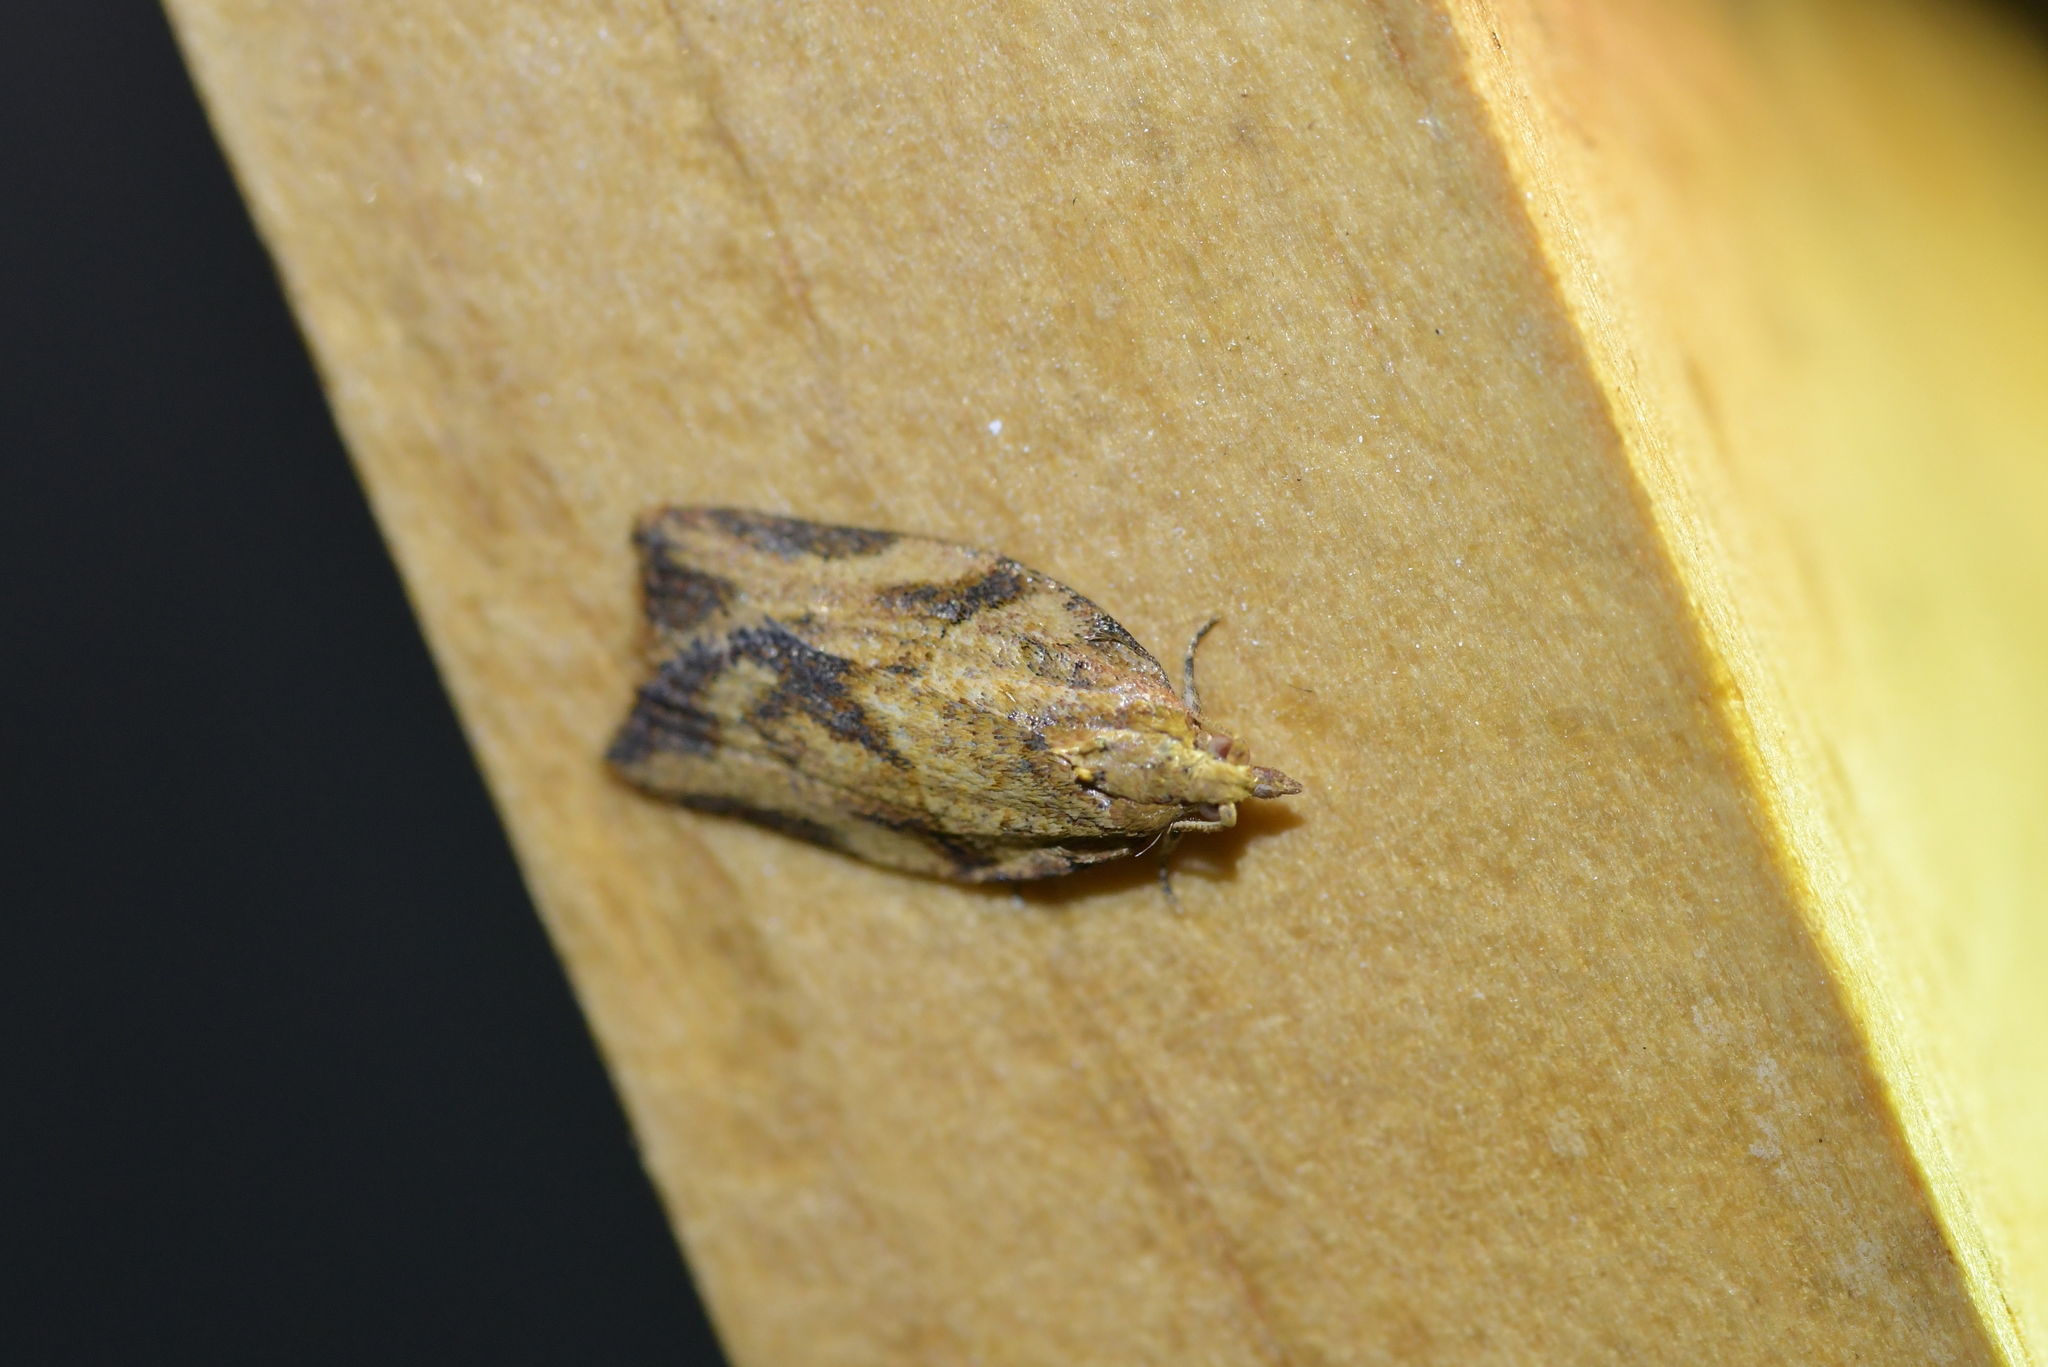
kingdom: Animalia
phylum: Arthropoda
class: Insecta
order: Lepidoptera
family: Tortricidae
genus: Epiphyas
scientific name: Epiphyas postvittana
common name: Light brown apple moth
